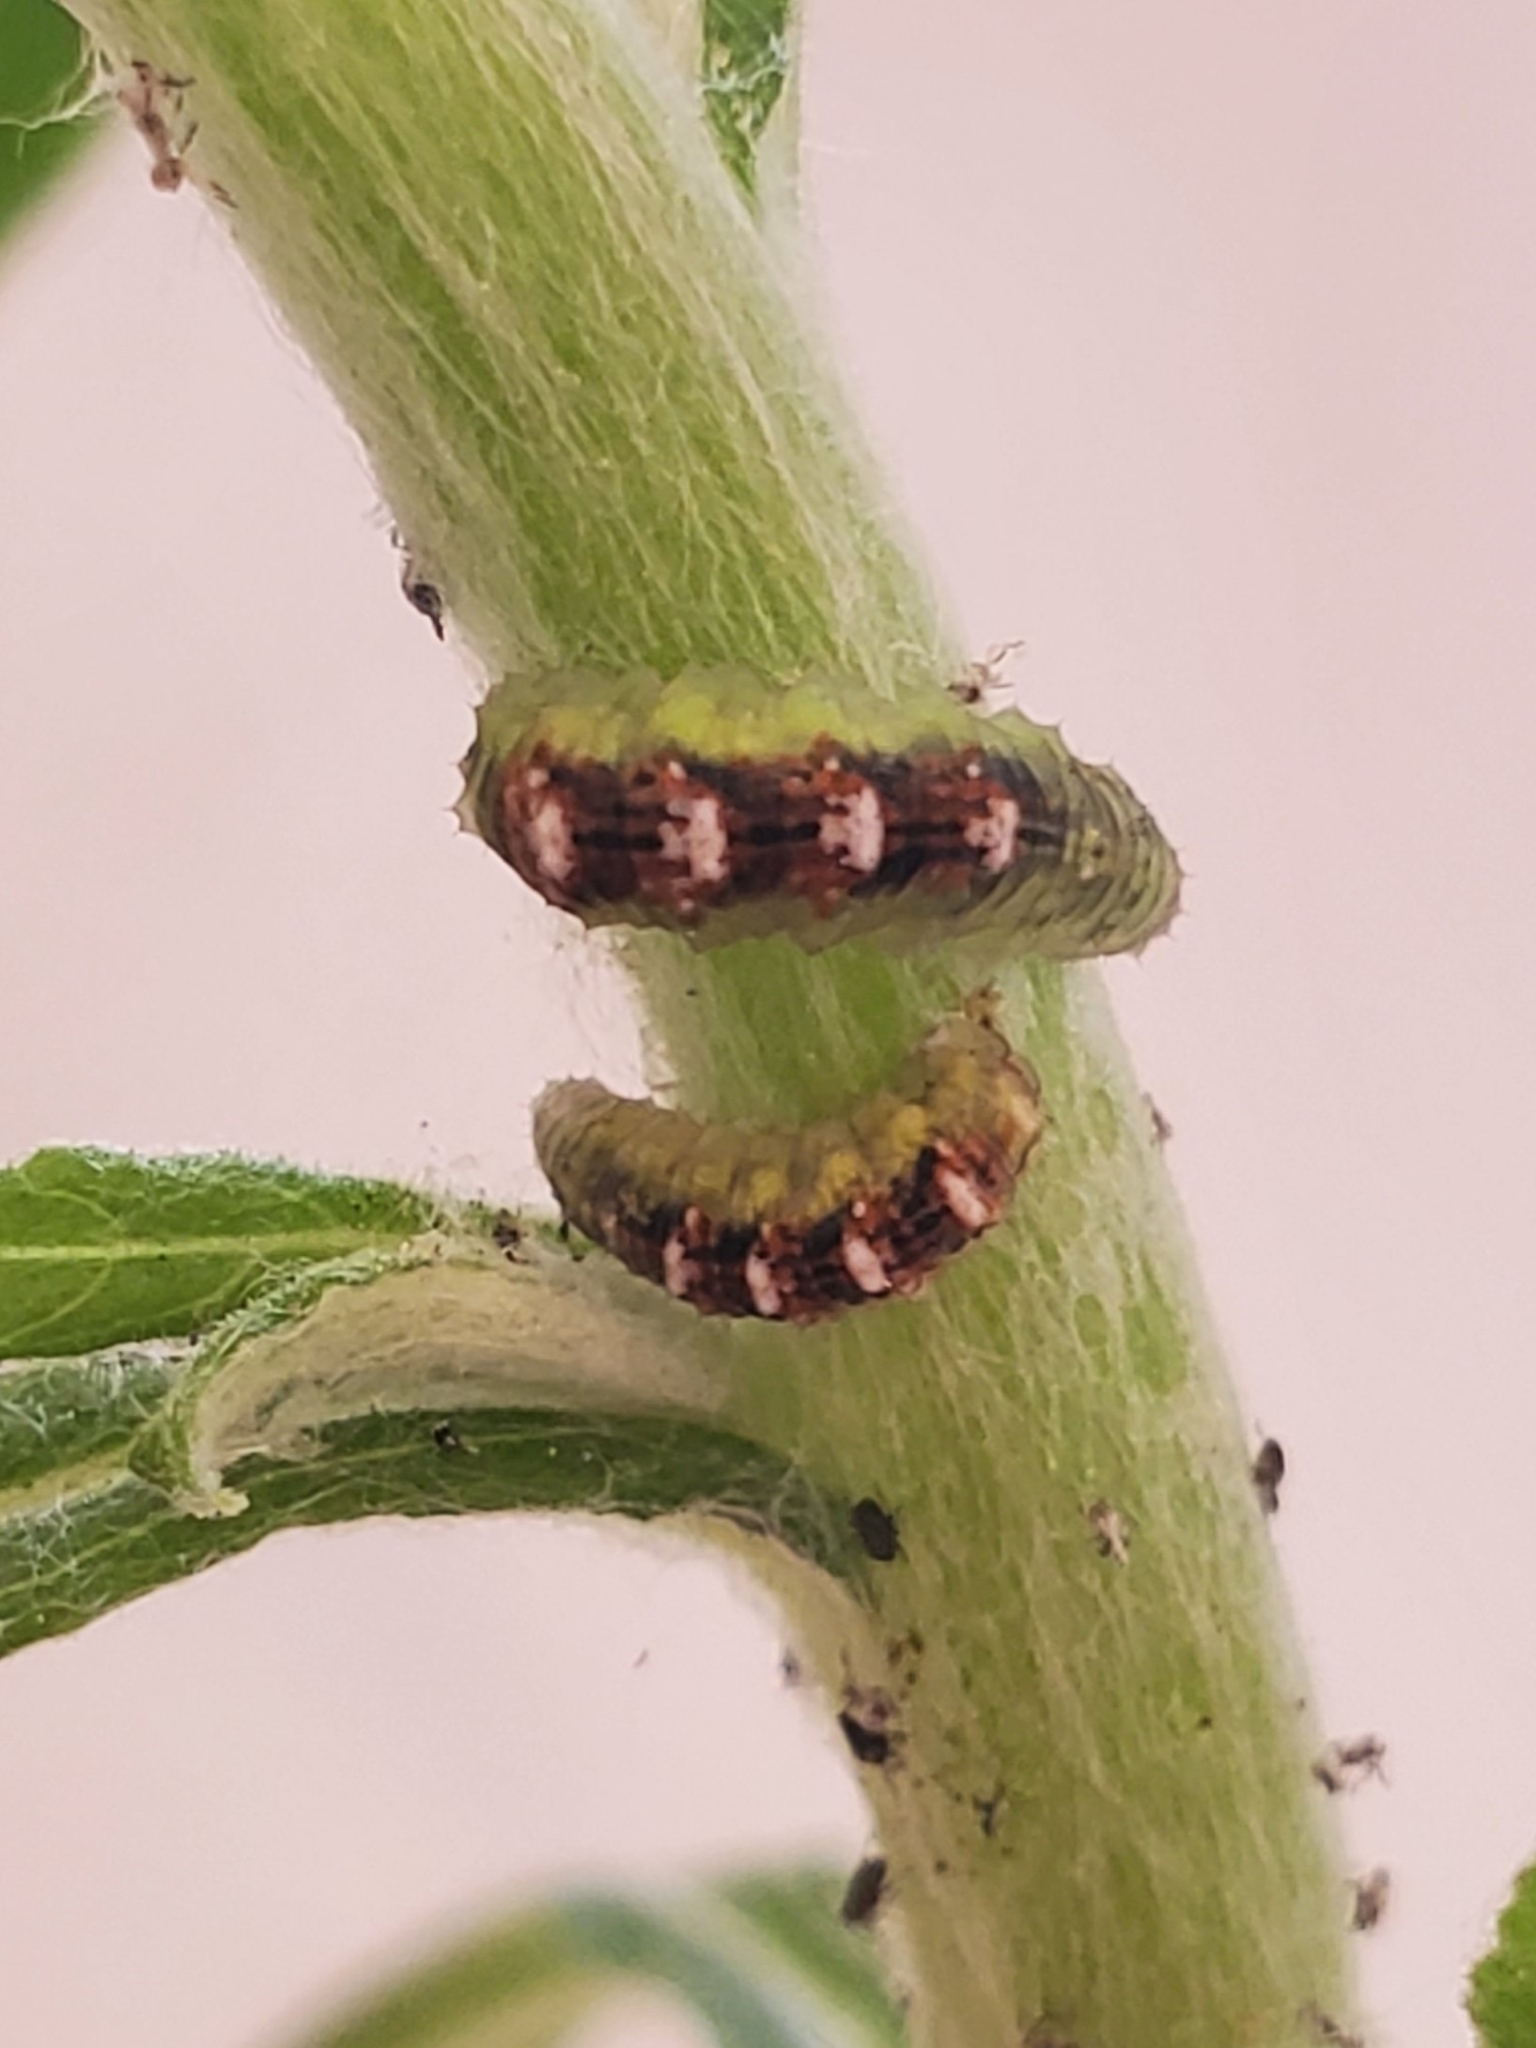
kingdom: Animalia
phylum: Arthropoda
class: Insecta
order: Diptera
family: Syrphidae
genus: Eupeodes
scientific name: Eupeodes pomus
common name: Short-tailed aphideater
